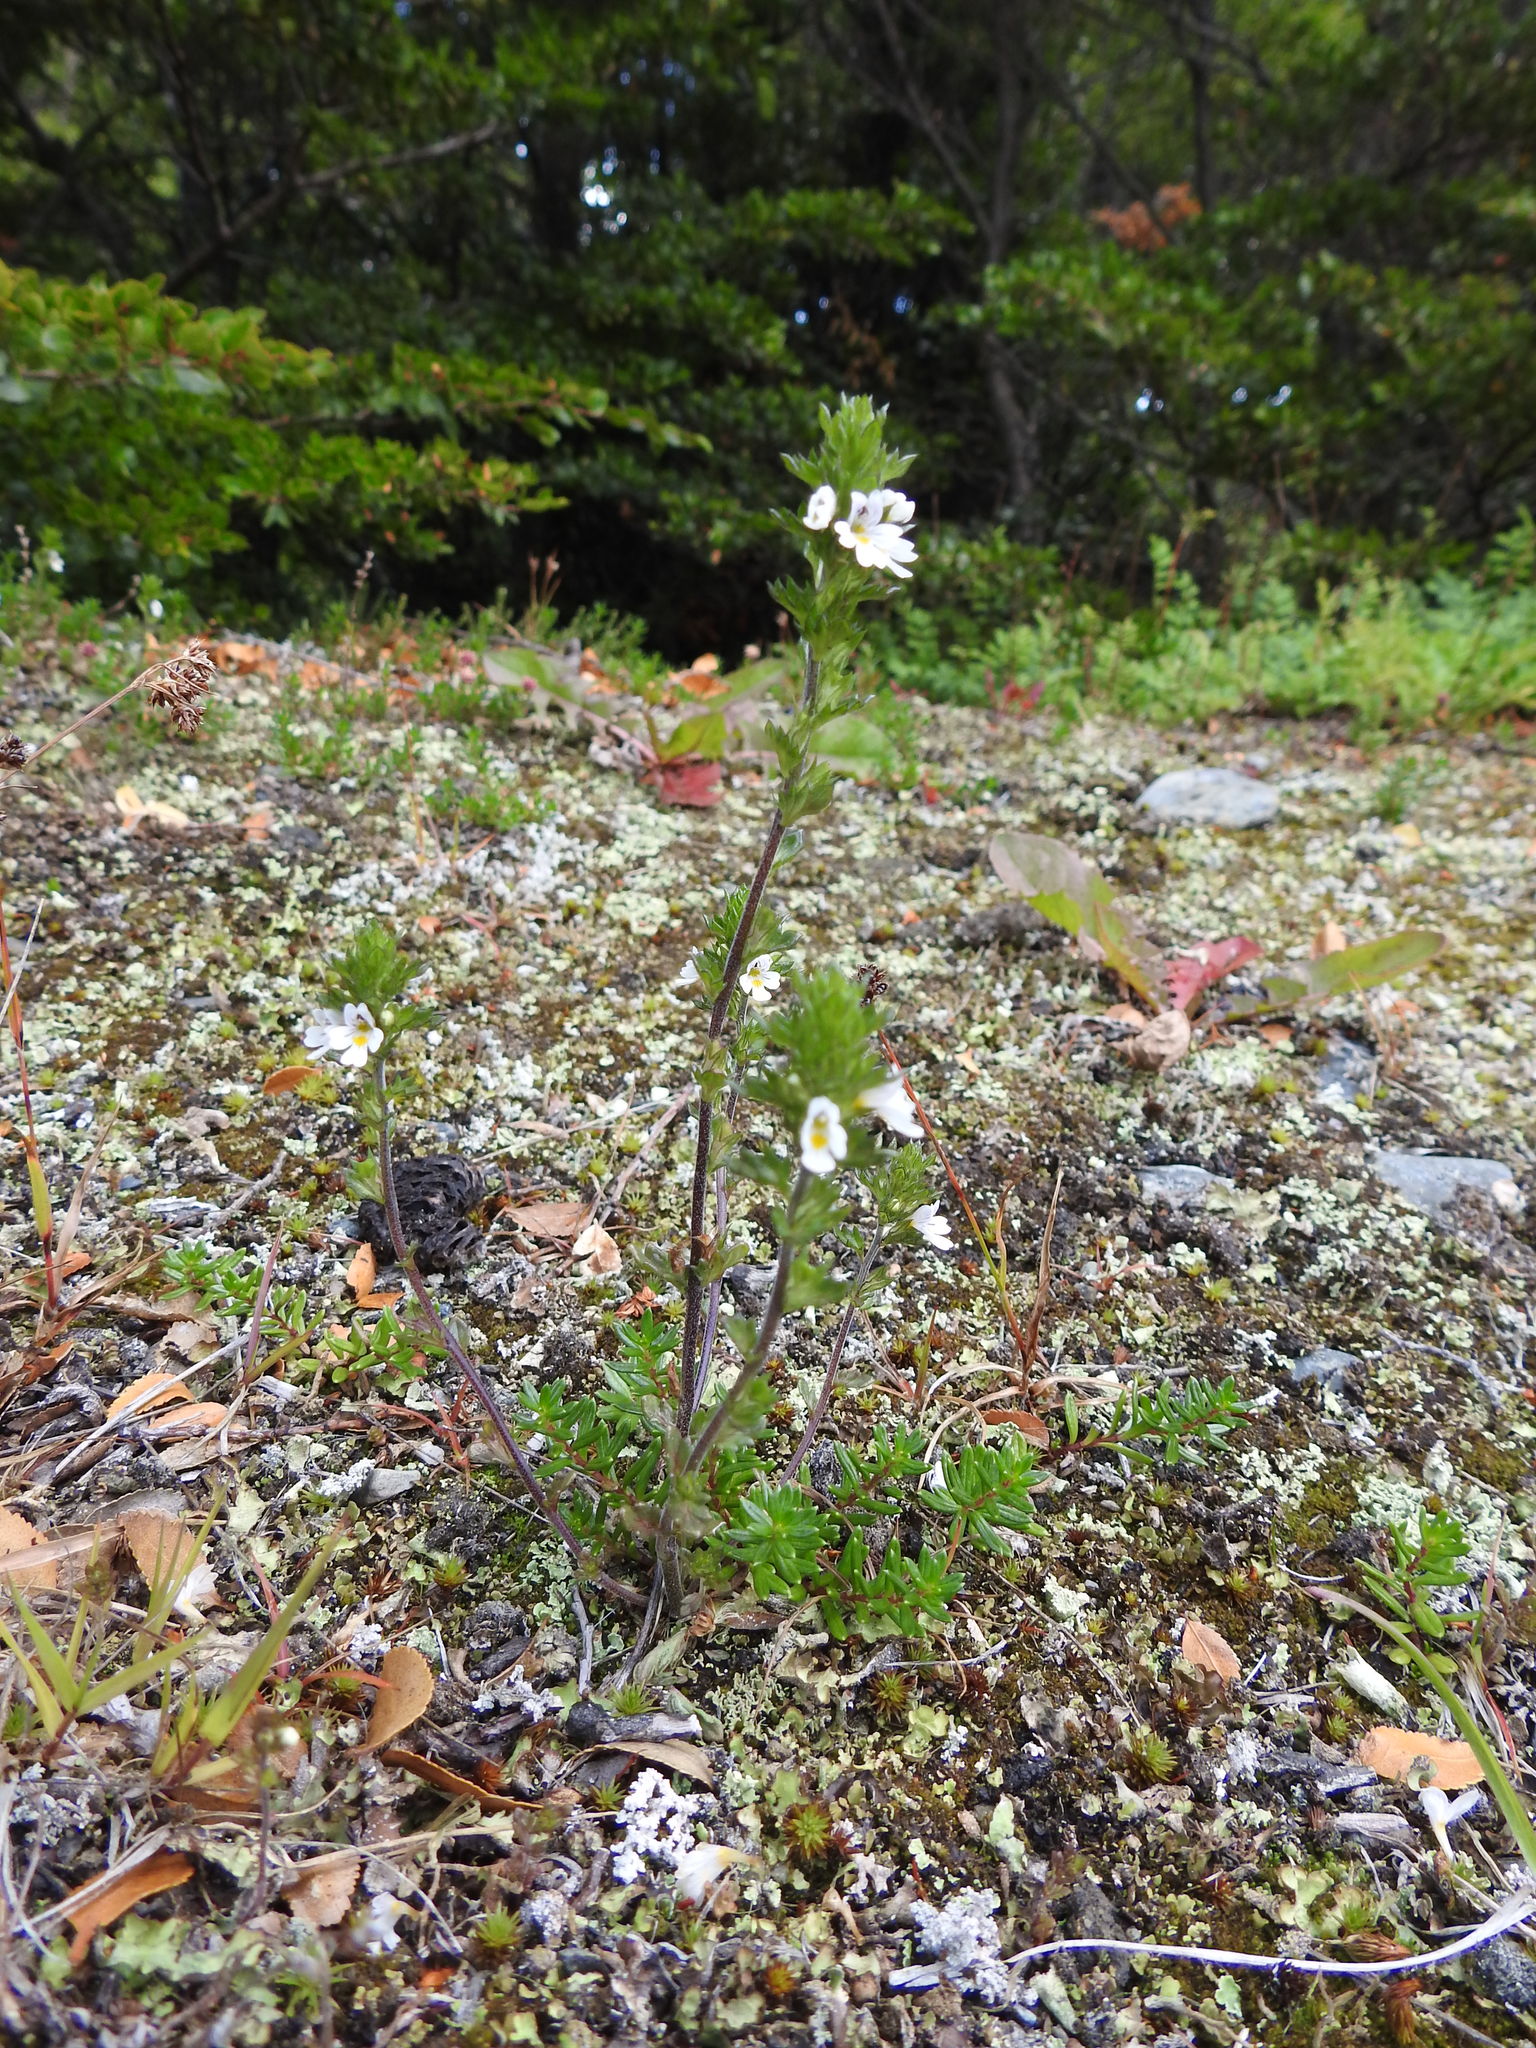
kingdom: Plantae
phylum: Tracheophyta
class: Magnoliopsida
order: Lamiales
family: Orobanchaceae
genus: Euphrasia
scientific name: Euphrasia officinalis
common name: Eyebright
